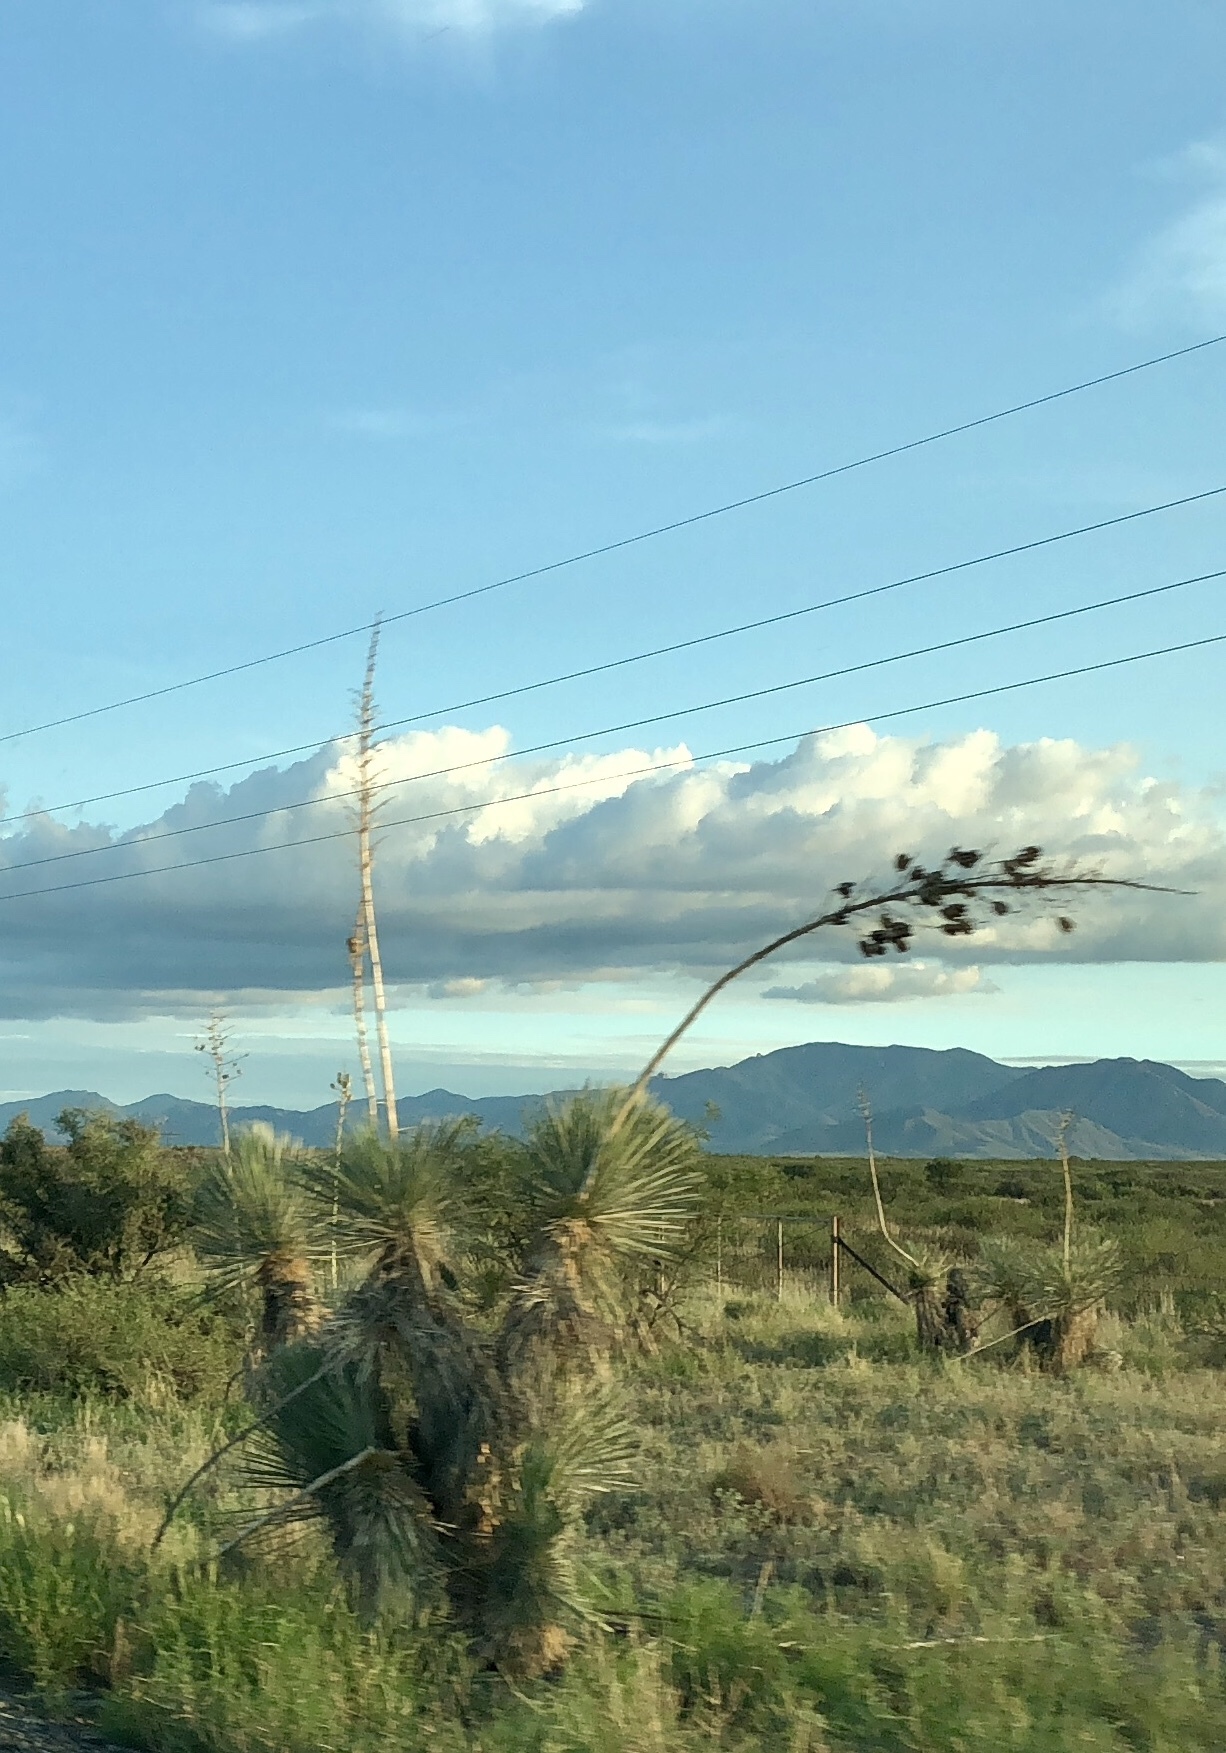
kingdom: Plantae
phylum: Tracheophyta
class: Liliopsida
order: Asparagales
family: Asparagaceae
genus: Yucca
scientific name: Yucca elata
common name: Palmella
